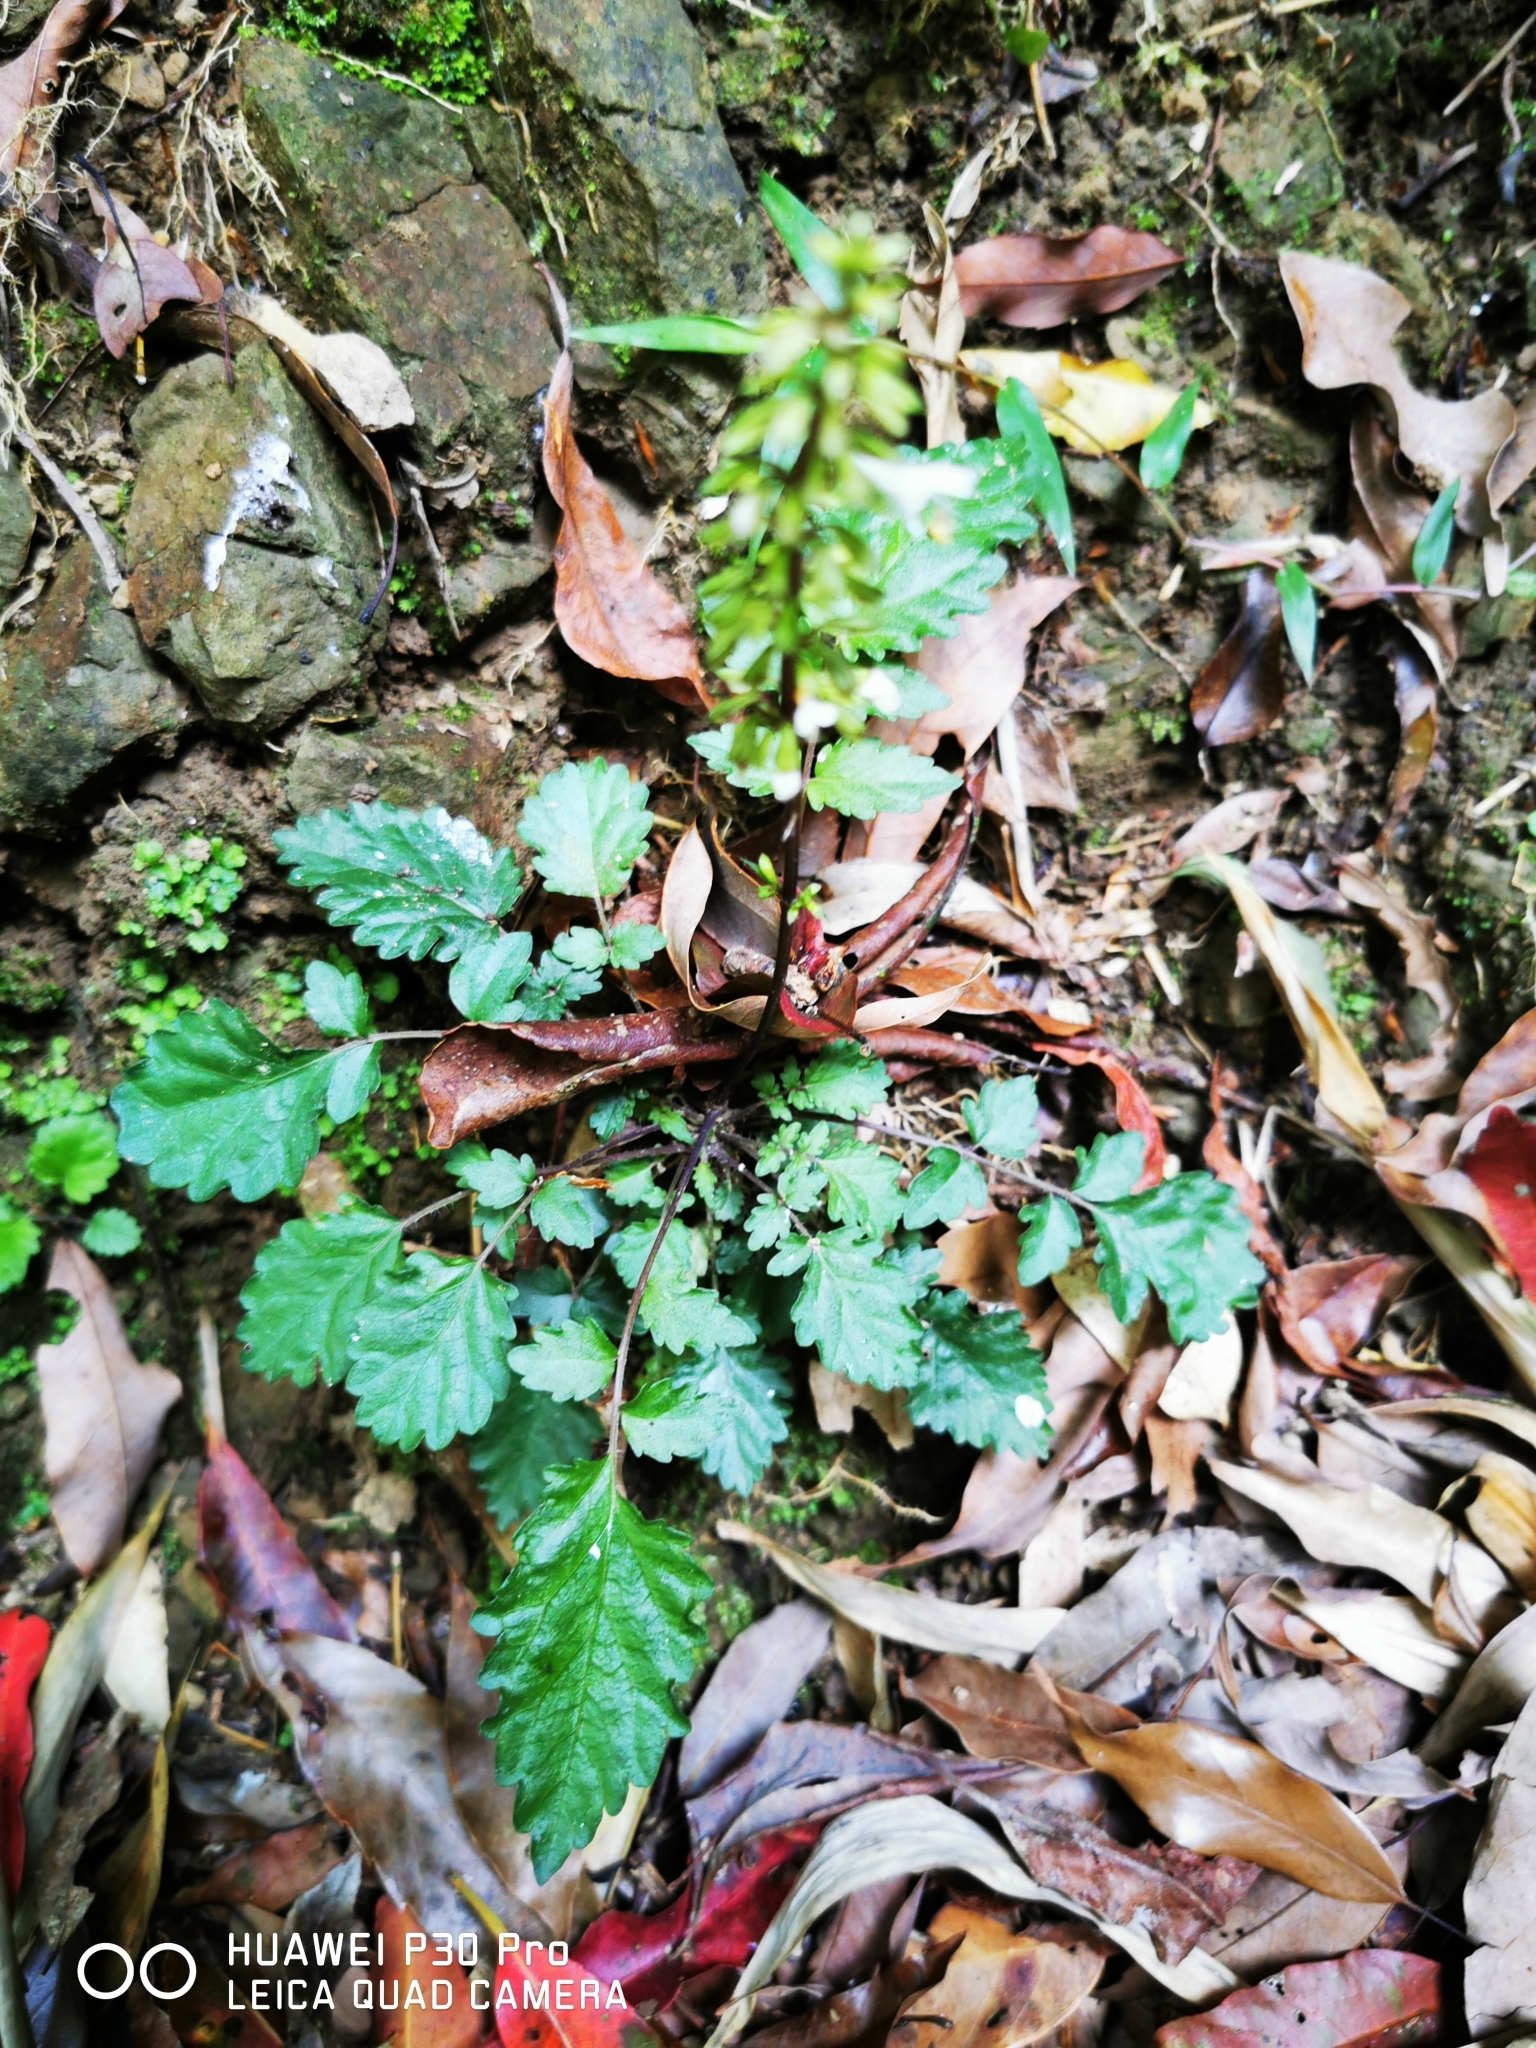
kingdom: Plantae
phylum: Tracheophyta
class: Magnoliopsida
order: Lamiales
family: Lamiaceae
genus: Salvia
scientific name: Salvia hayatae
